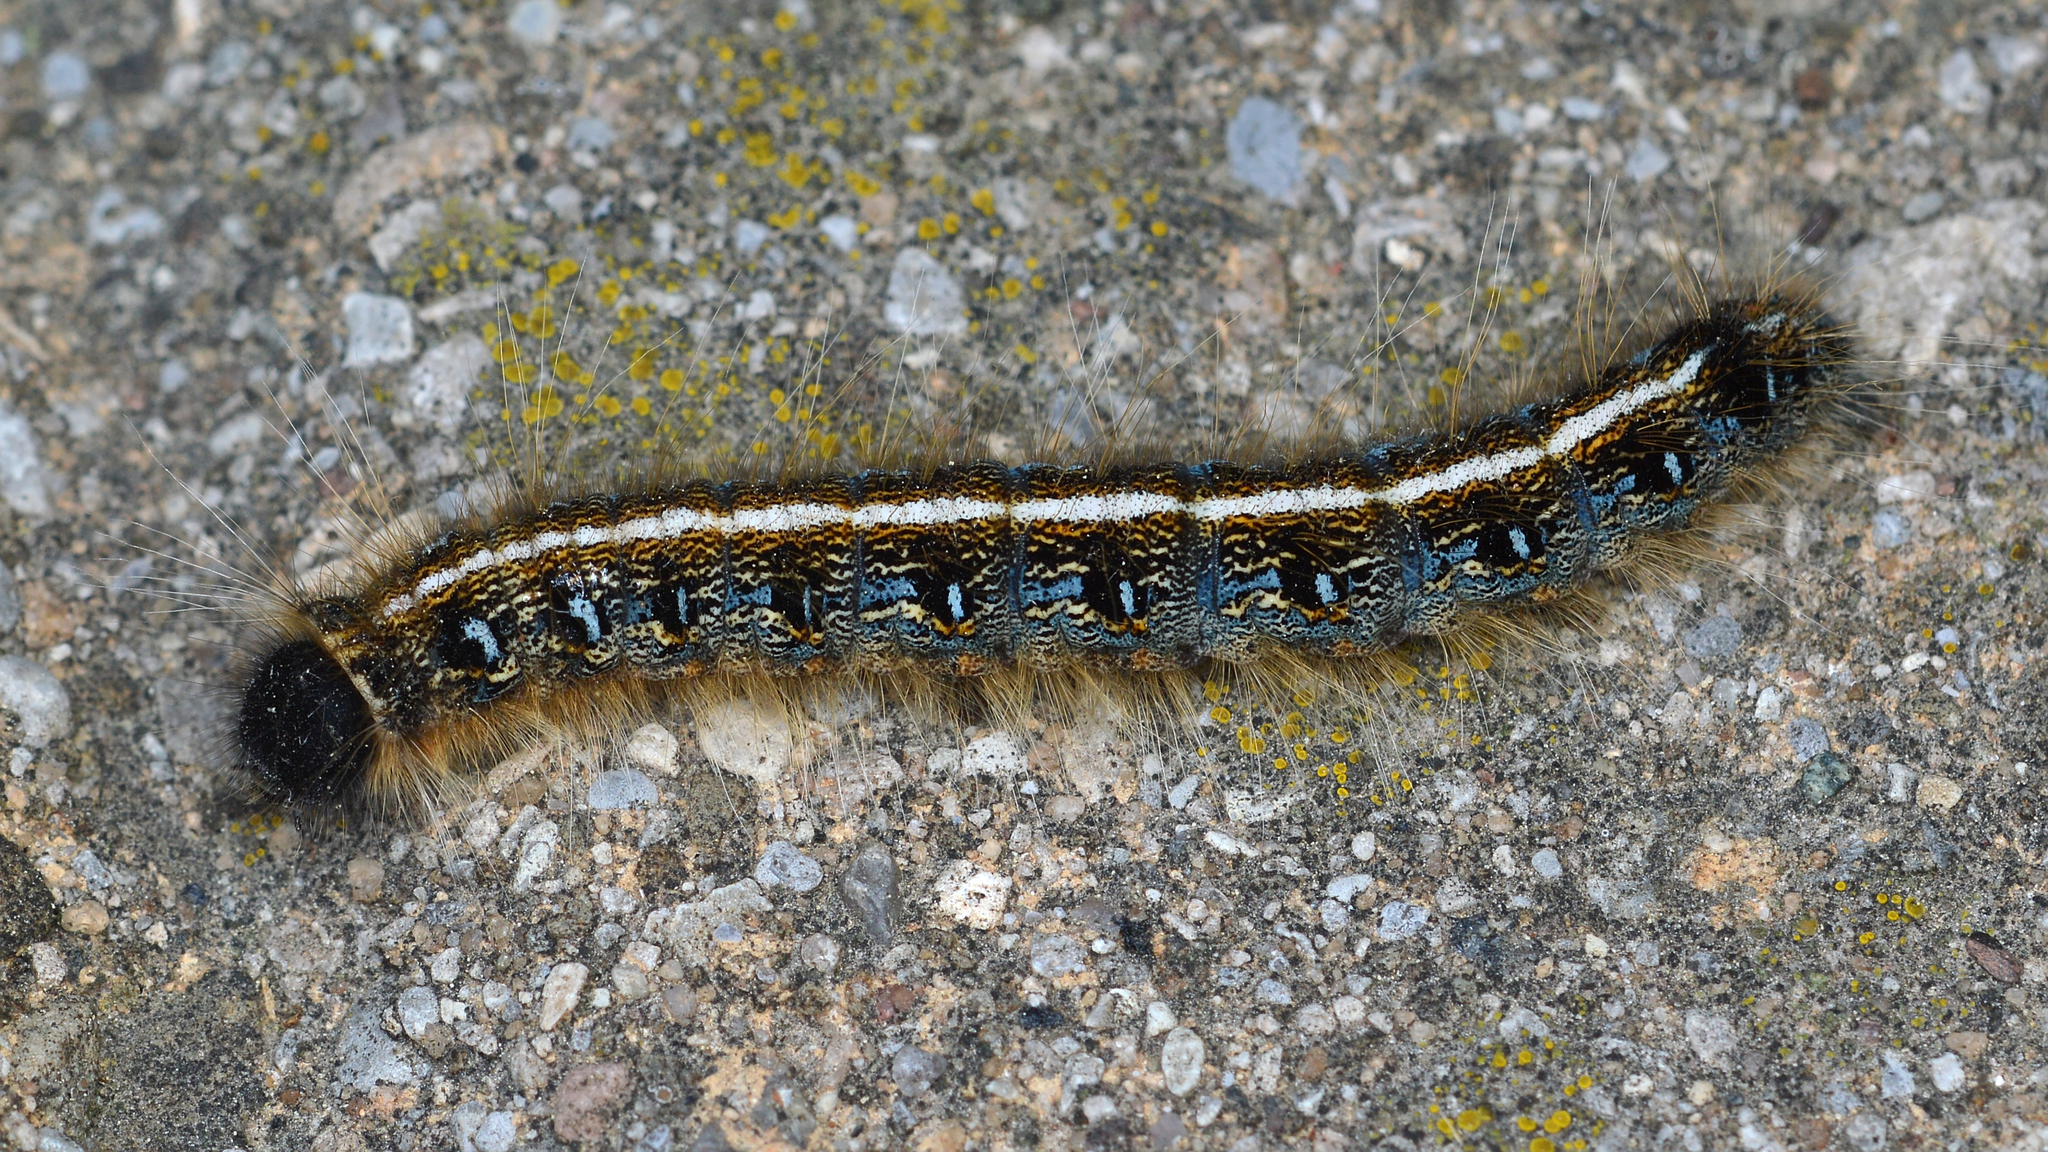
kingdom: Animalia
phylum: Arthropoda
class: Insecta
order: Lepidoptera
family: Lasiocampidae
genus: Malacosoma
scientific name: Malacosoma americana
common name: Eastern tent caterpillar moth
